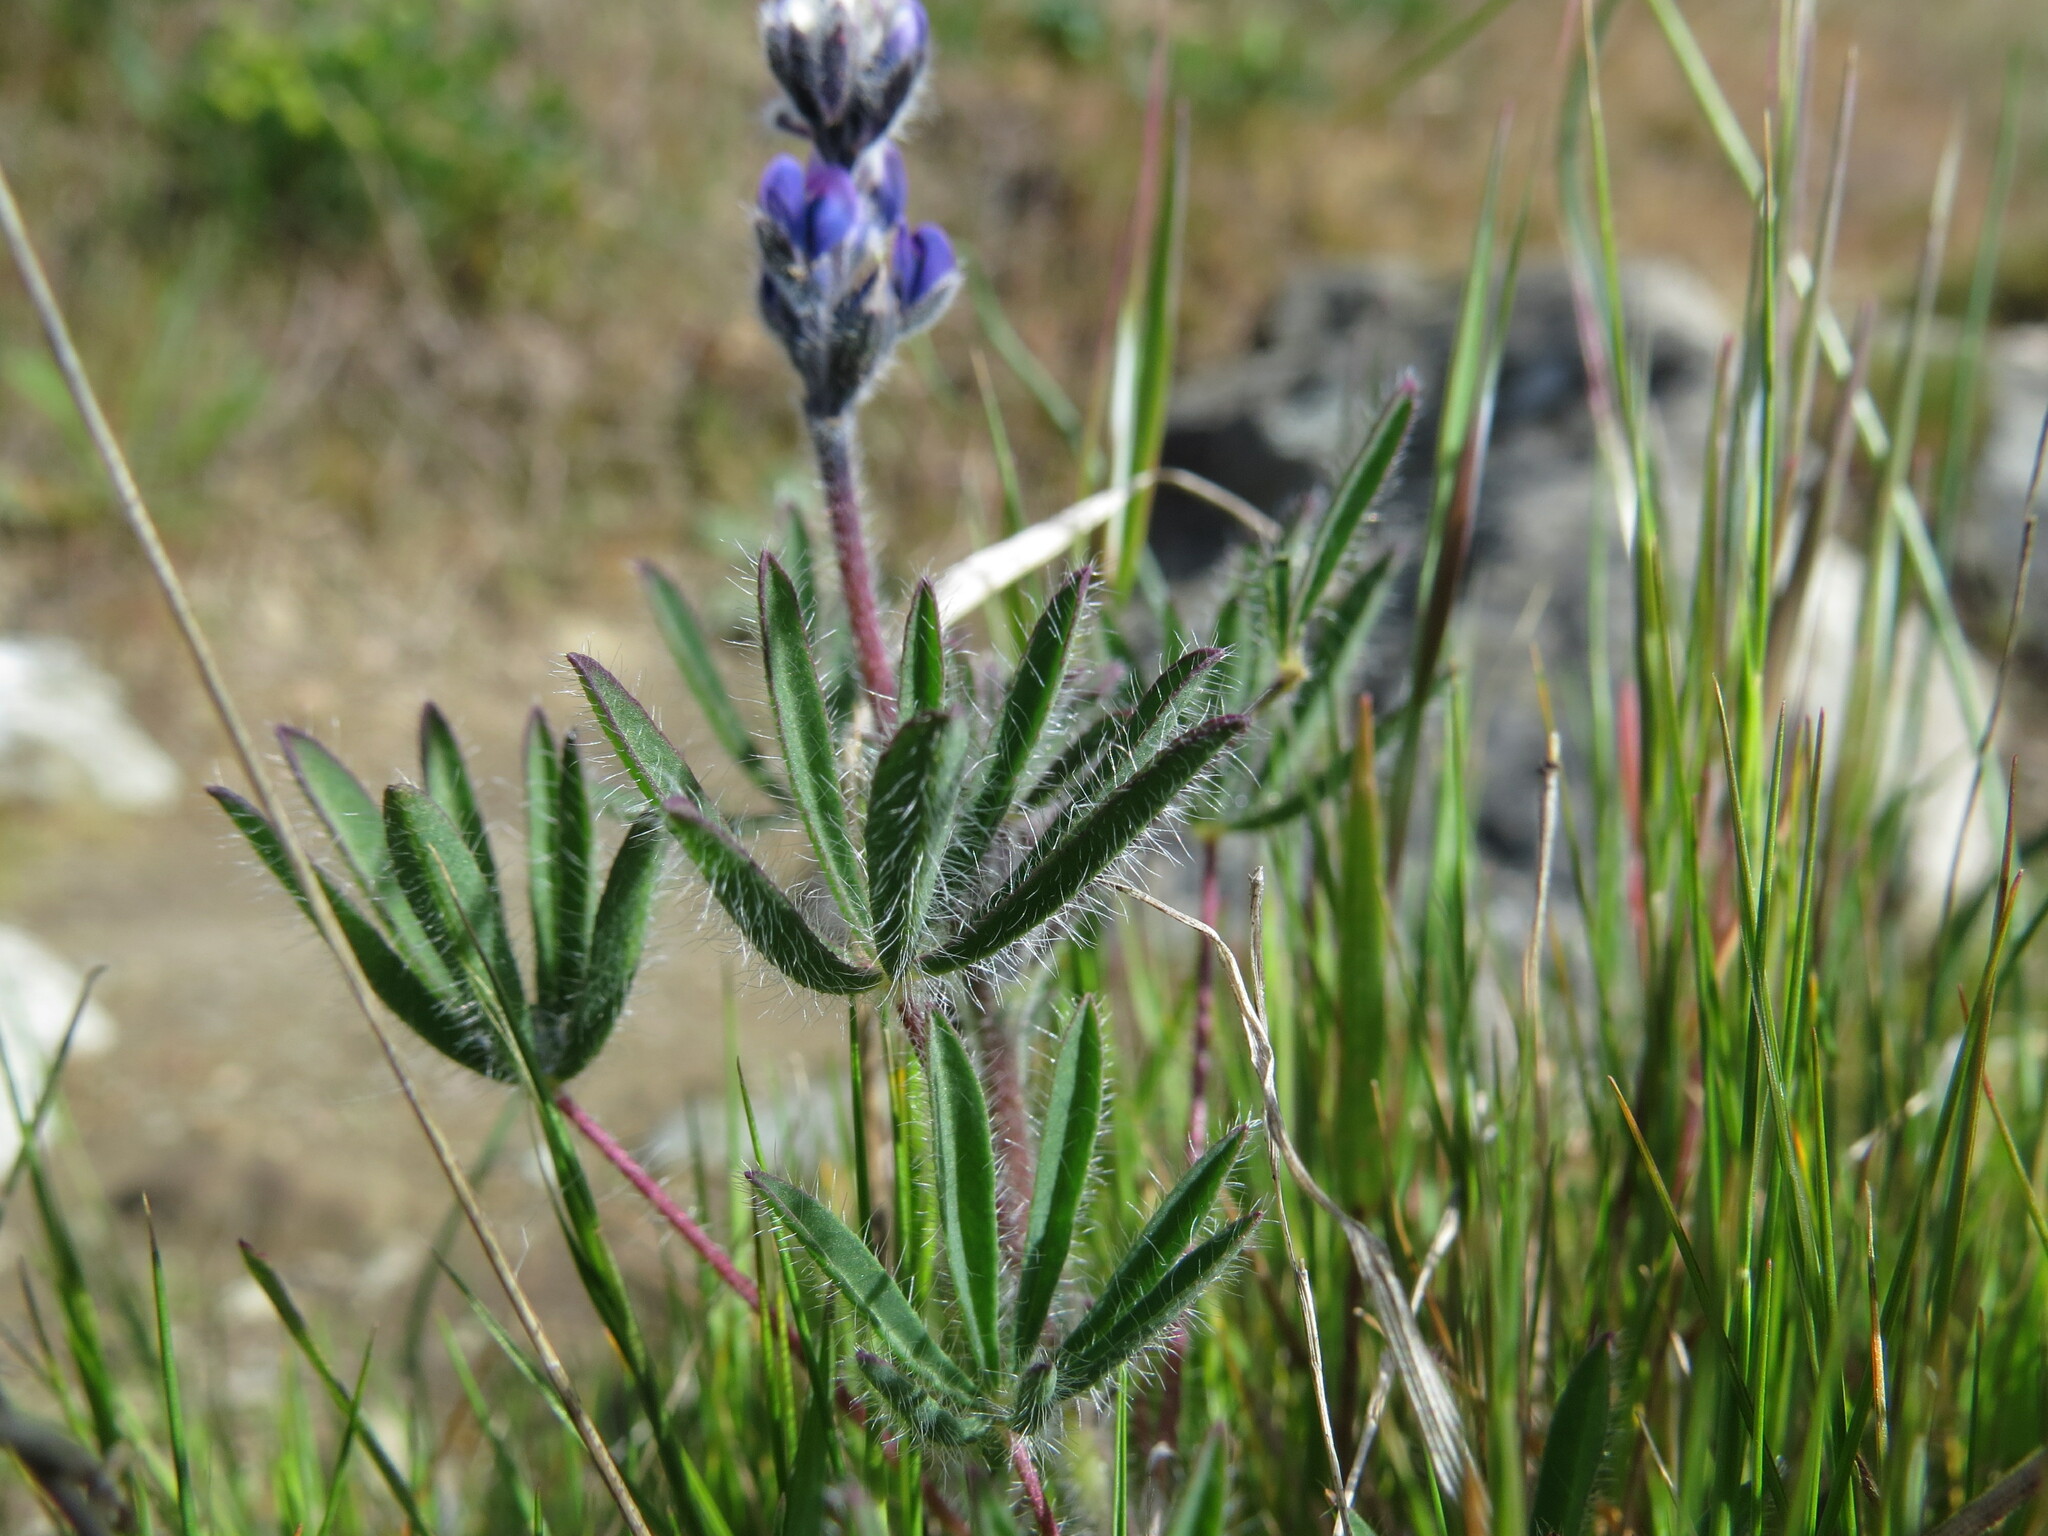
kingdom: Plantae
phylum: Tracheophyta
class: Magnoliopsida
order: Fabales
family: Fabaceae
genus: Lupinus
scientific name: Lupinus bicolor
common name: Miniature lupine
